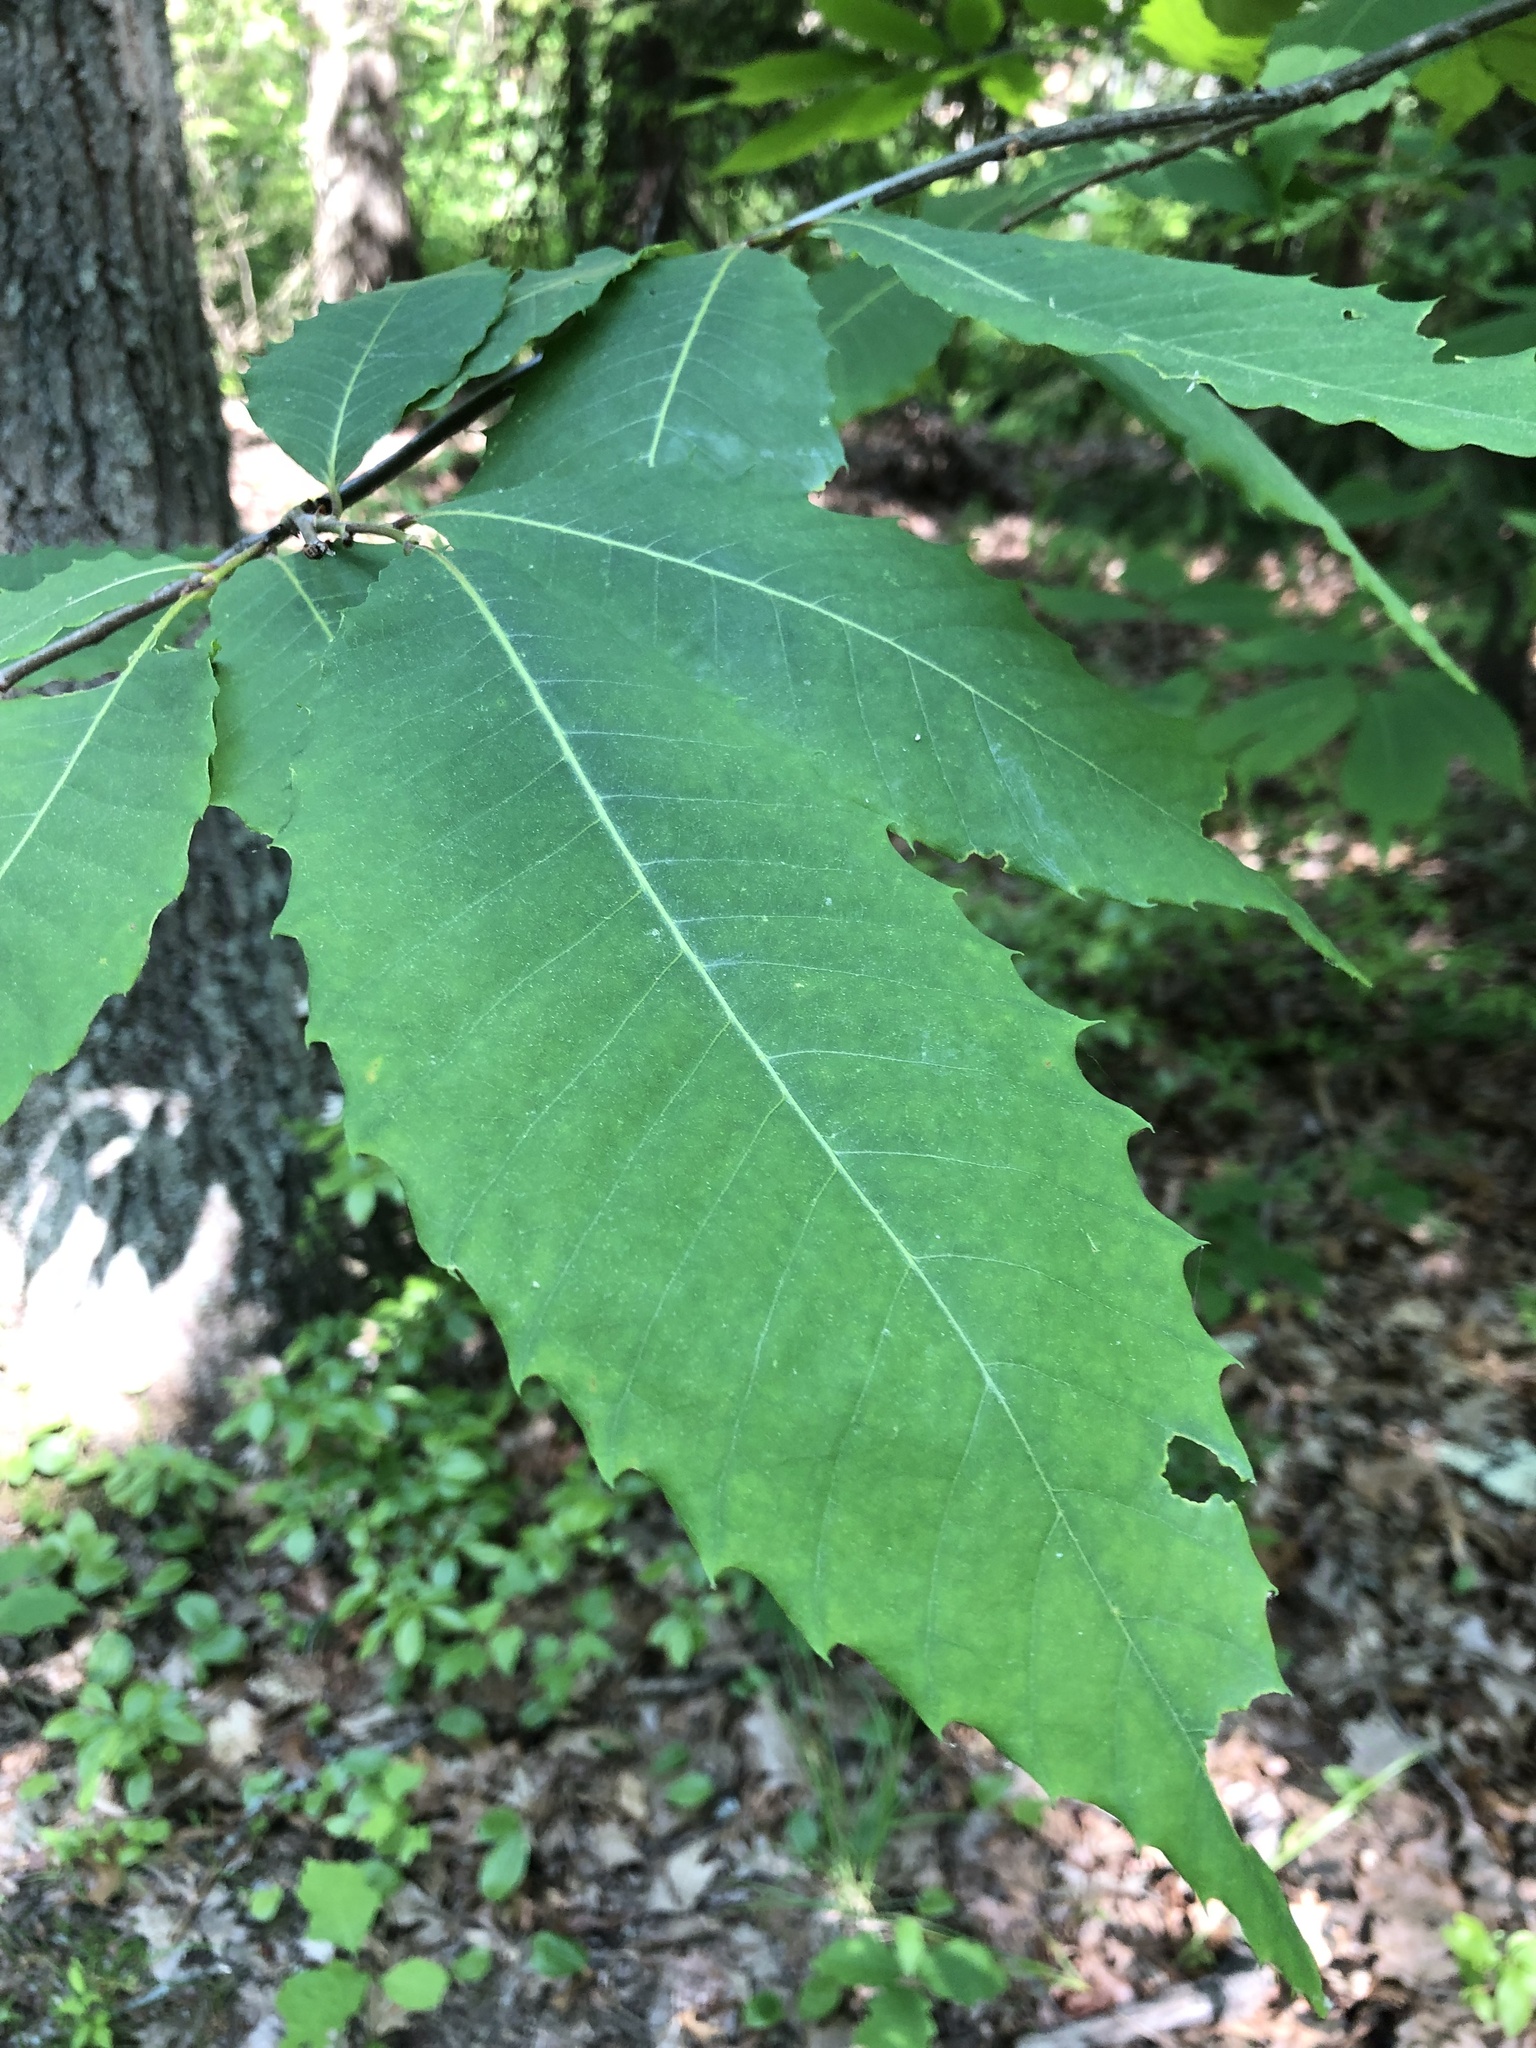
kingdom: Plantae
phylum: Tracheophyta
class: Magnoliopsida
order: Fagales
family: Fagaceae
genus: Castanea
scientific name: Castanea dentata
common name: American chestnut
